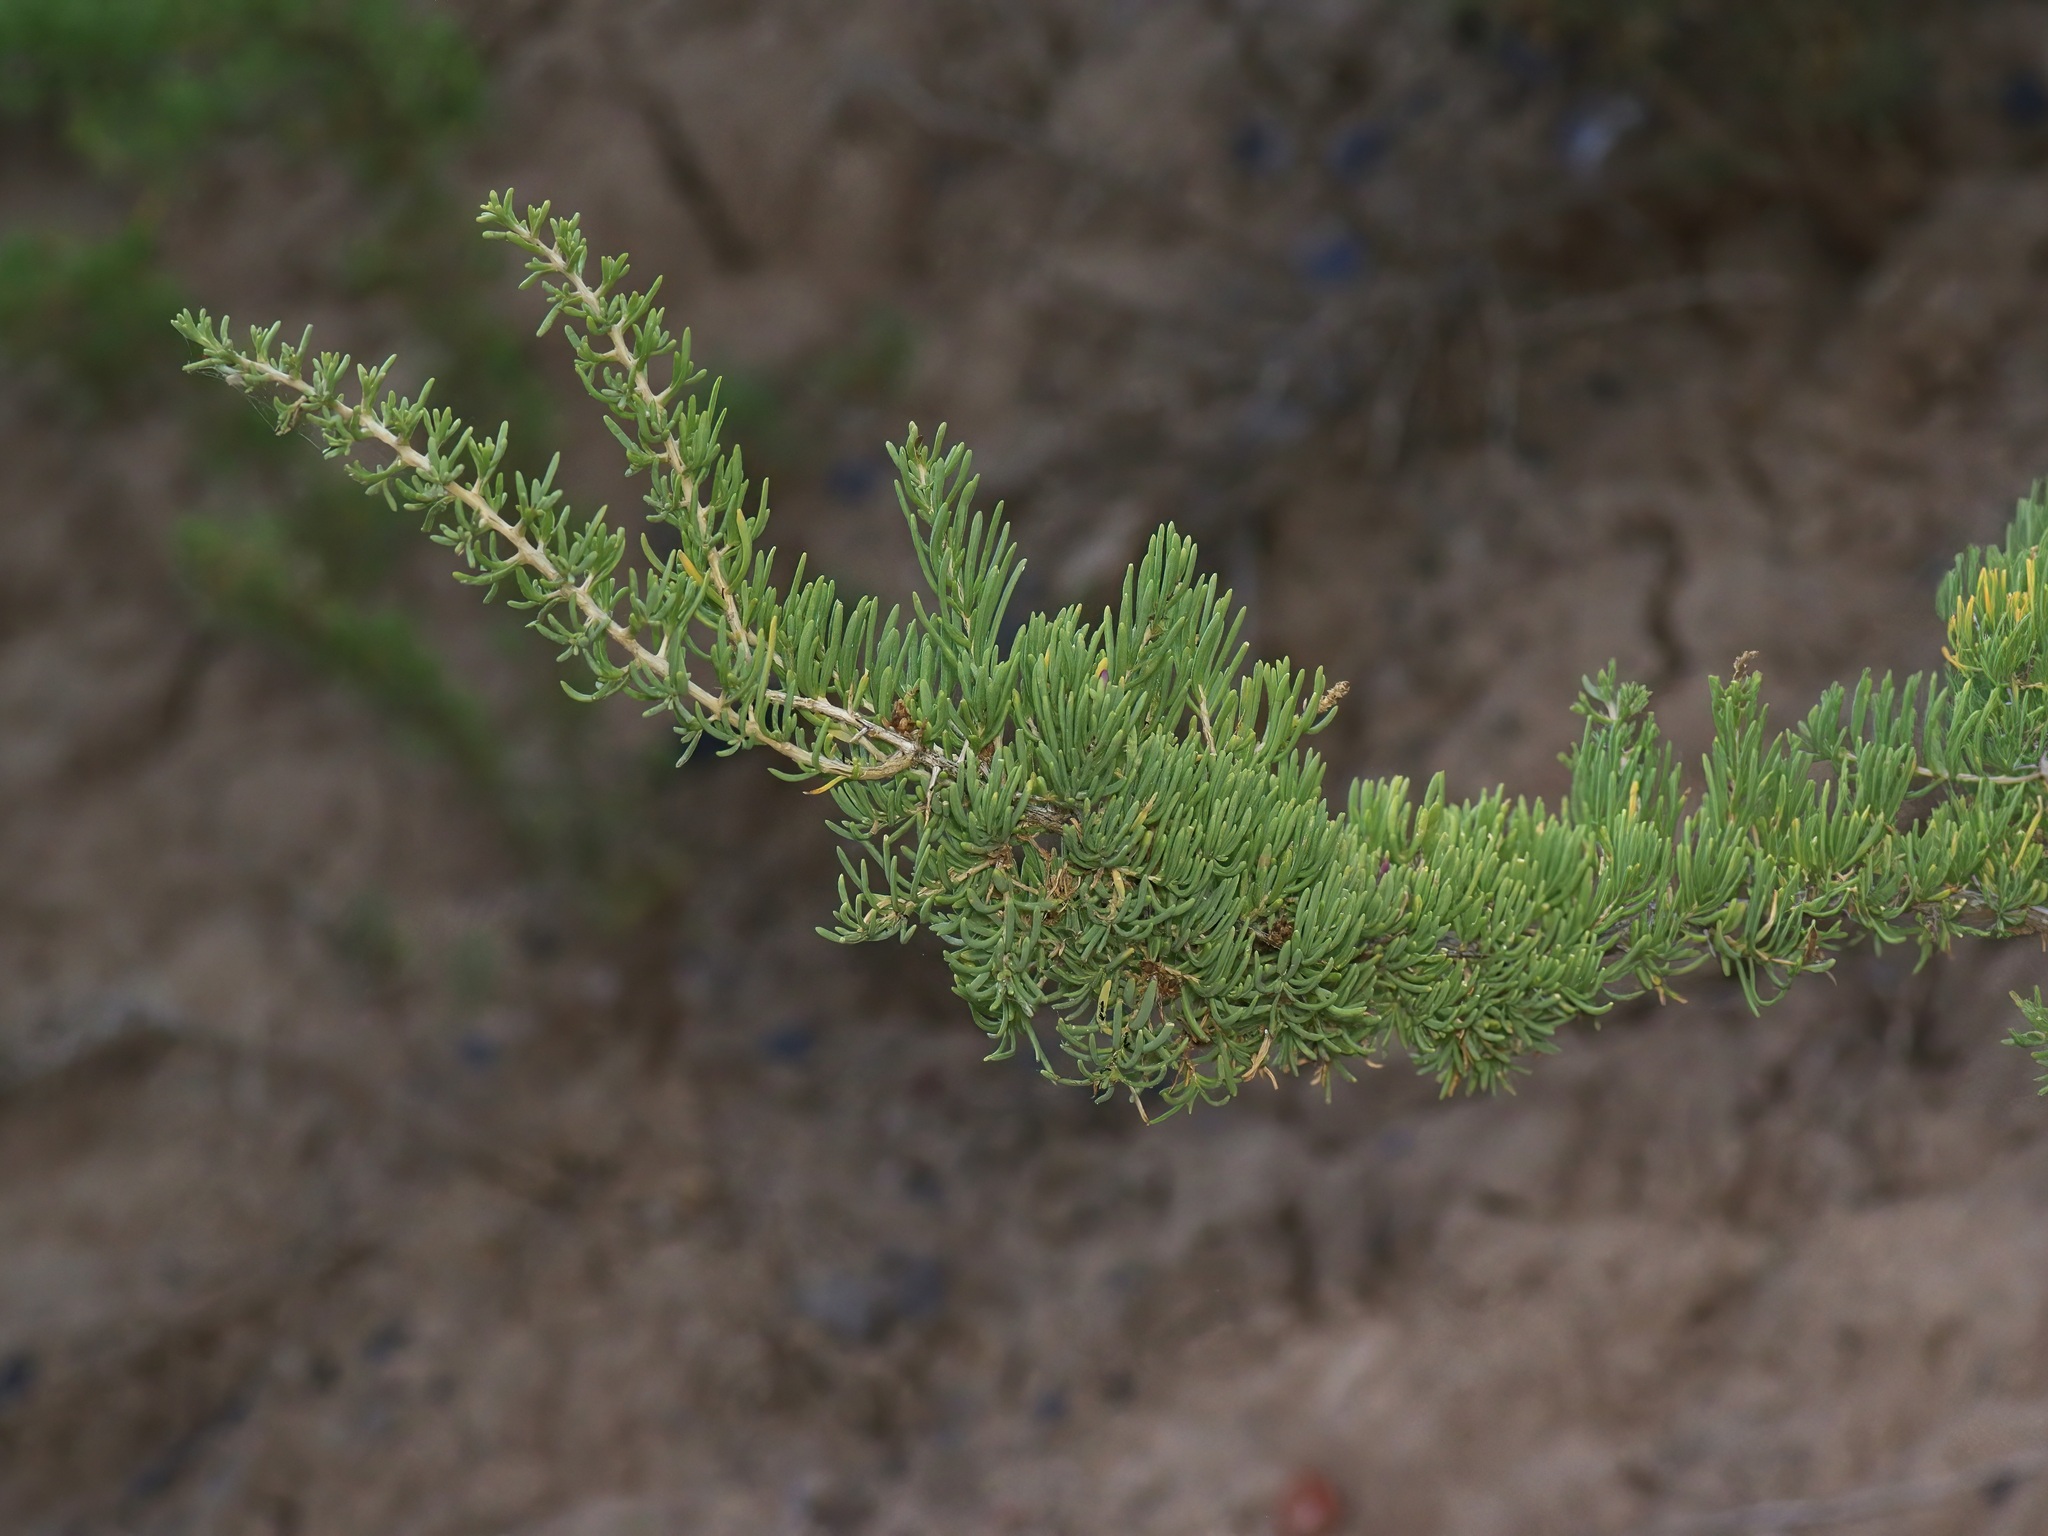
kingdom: Plantae
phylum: Tracheophyta
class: Magnoliopsida
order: Caryophyllales
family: Sarcobataceae
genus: Sarcobatus
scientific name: Sarcobatus vermiculatus
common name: Greasewood
